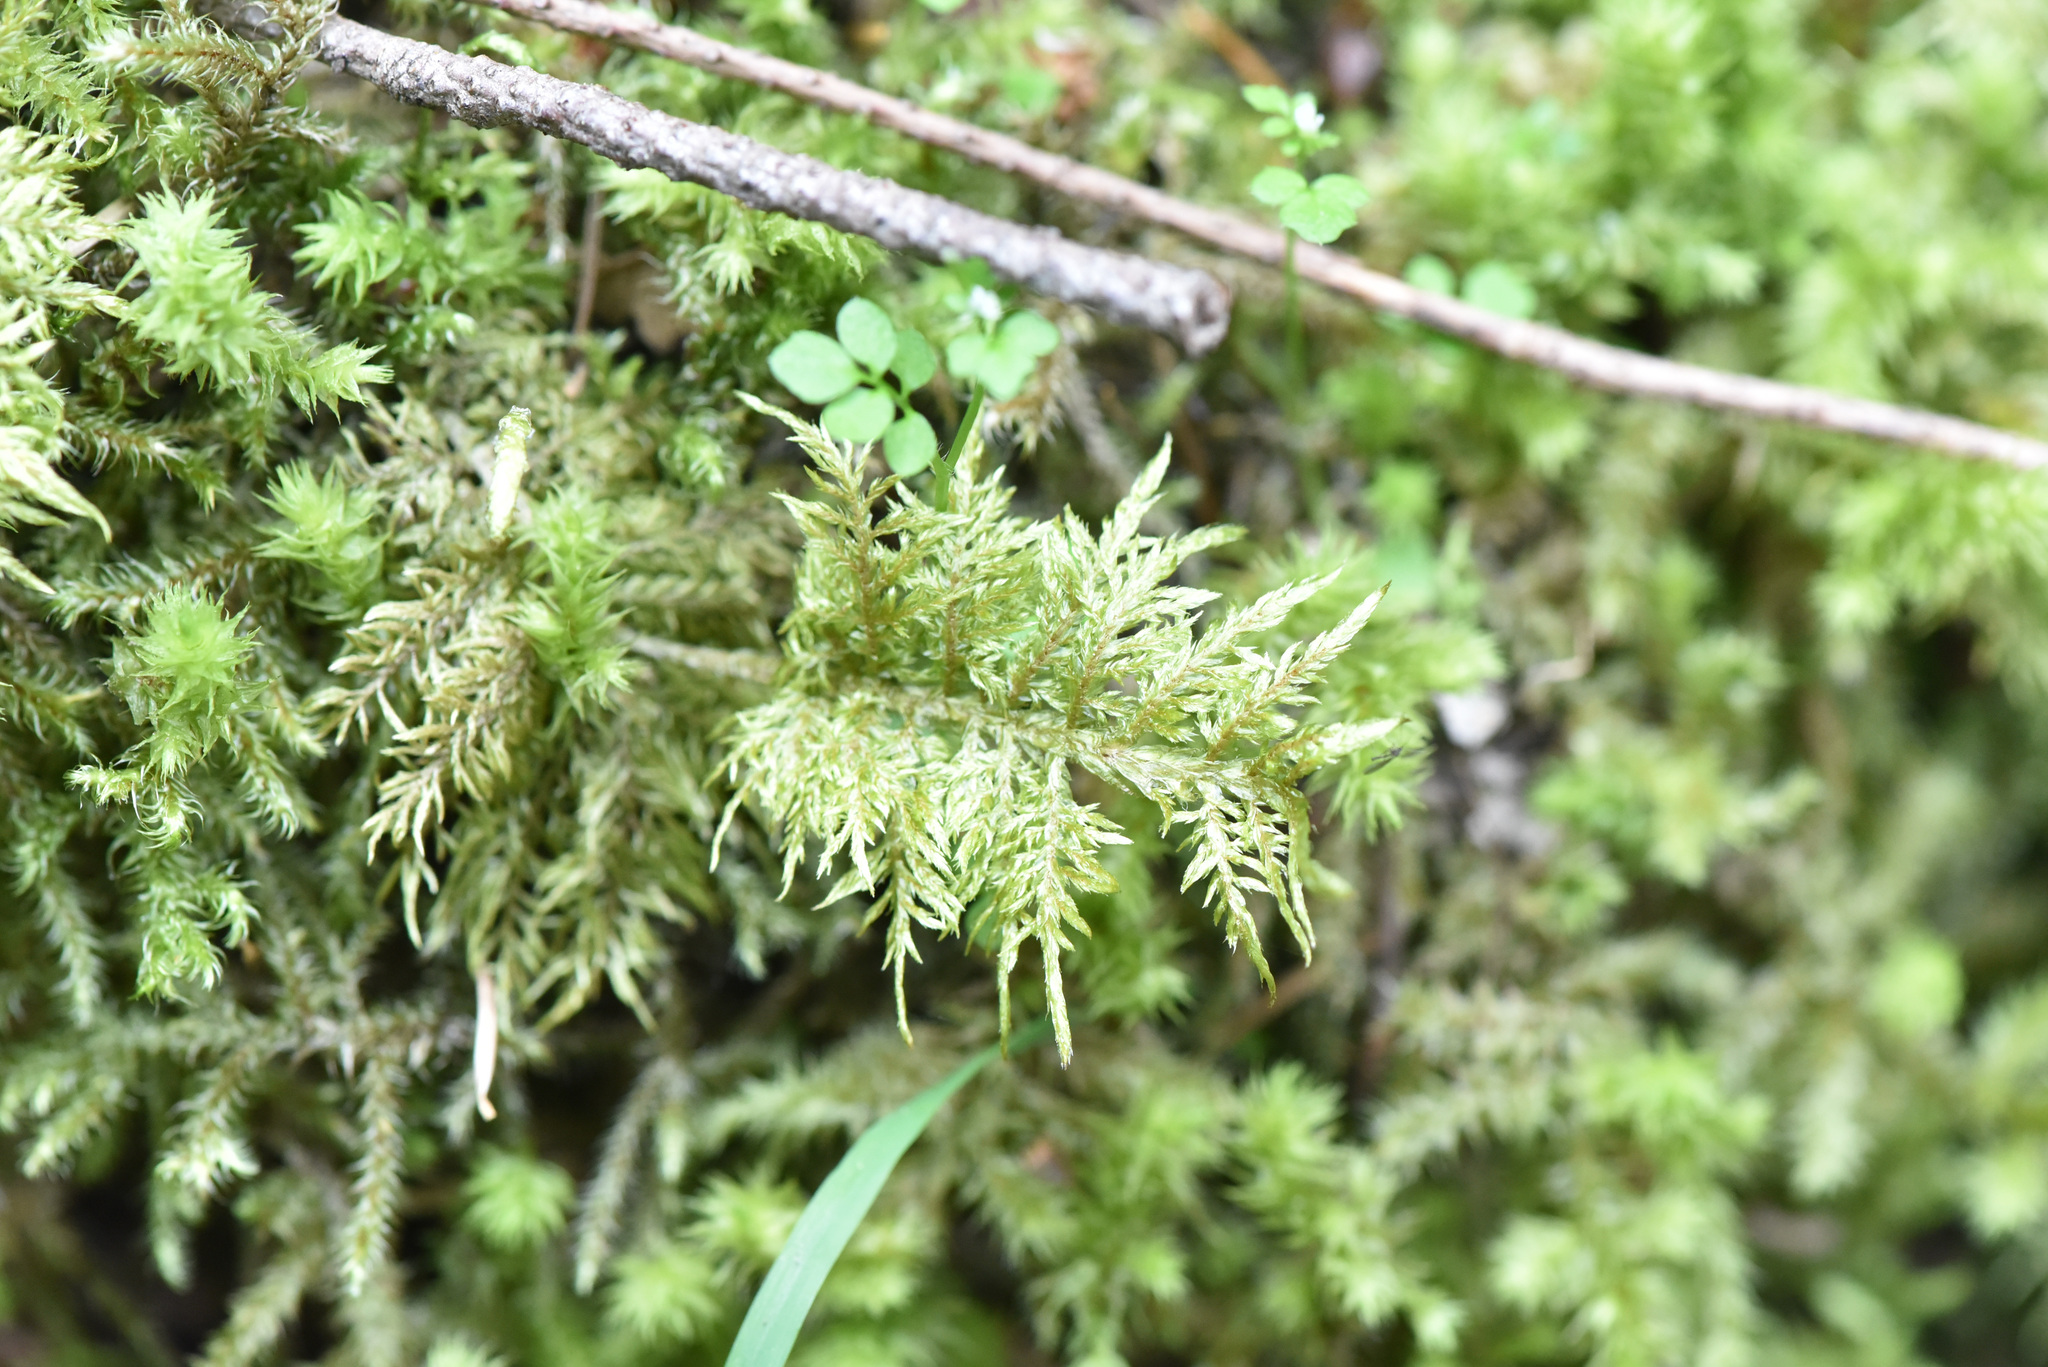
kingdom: Plantae
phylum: Bryophyta
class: Bryopsida
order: Hypnales
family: Hylocomiaceae
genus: Hylocomium
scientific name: Hylocomium splendens
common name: Stairstep moss
